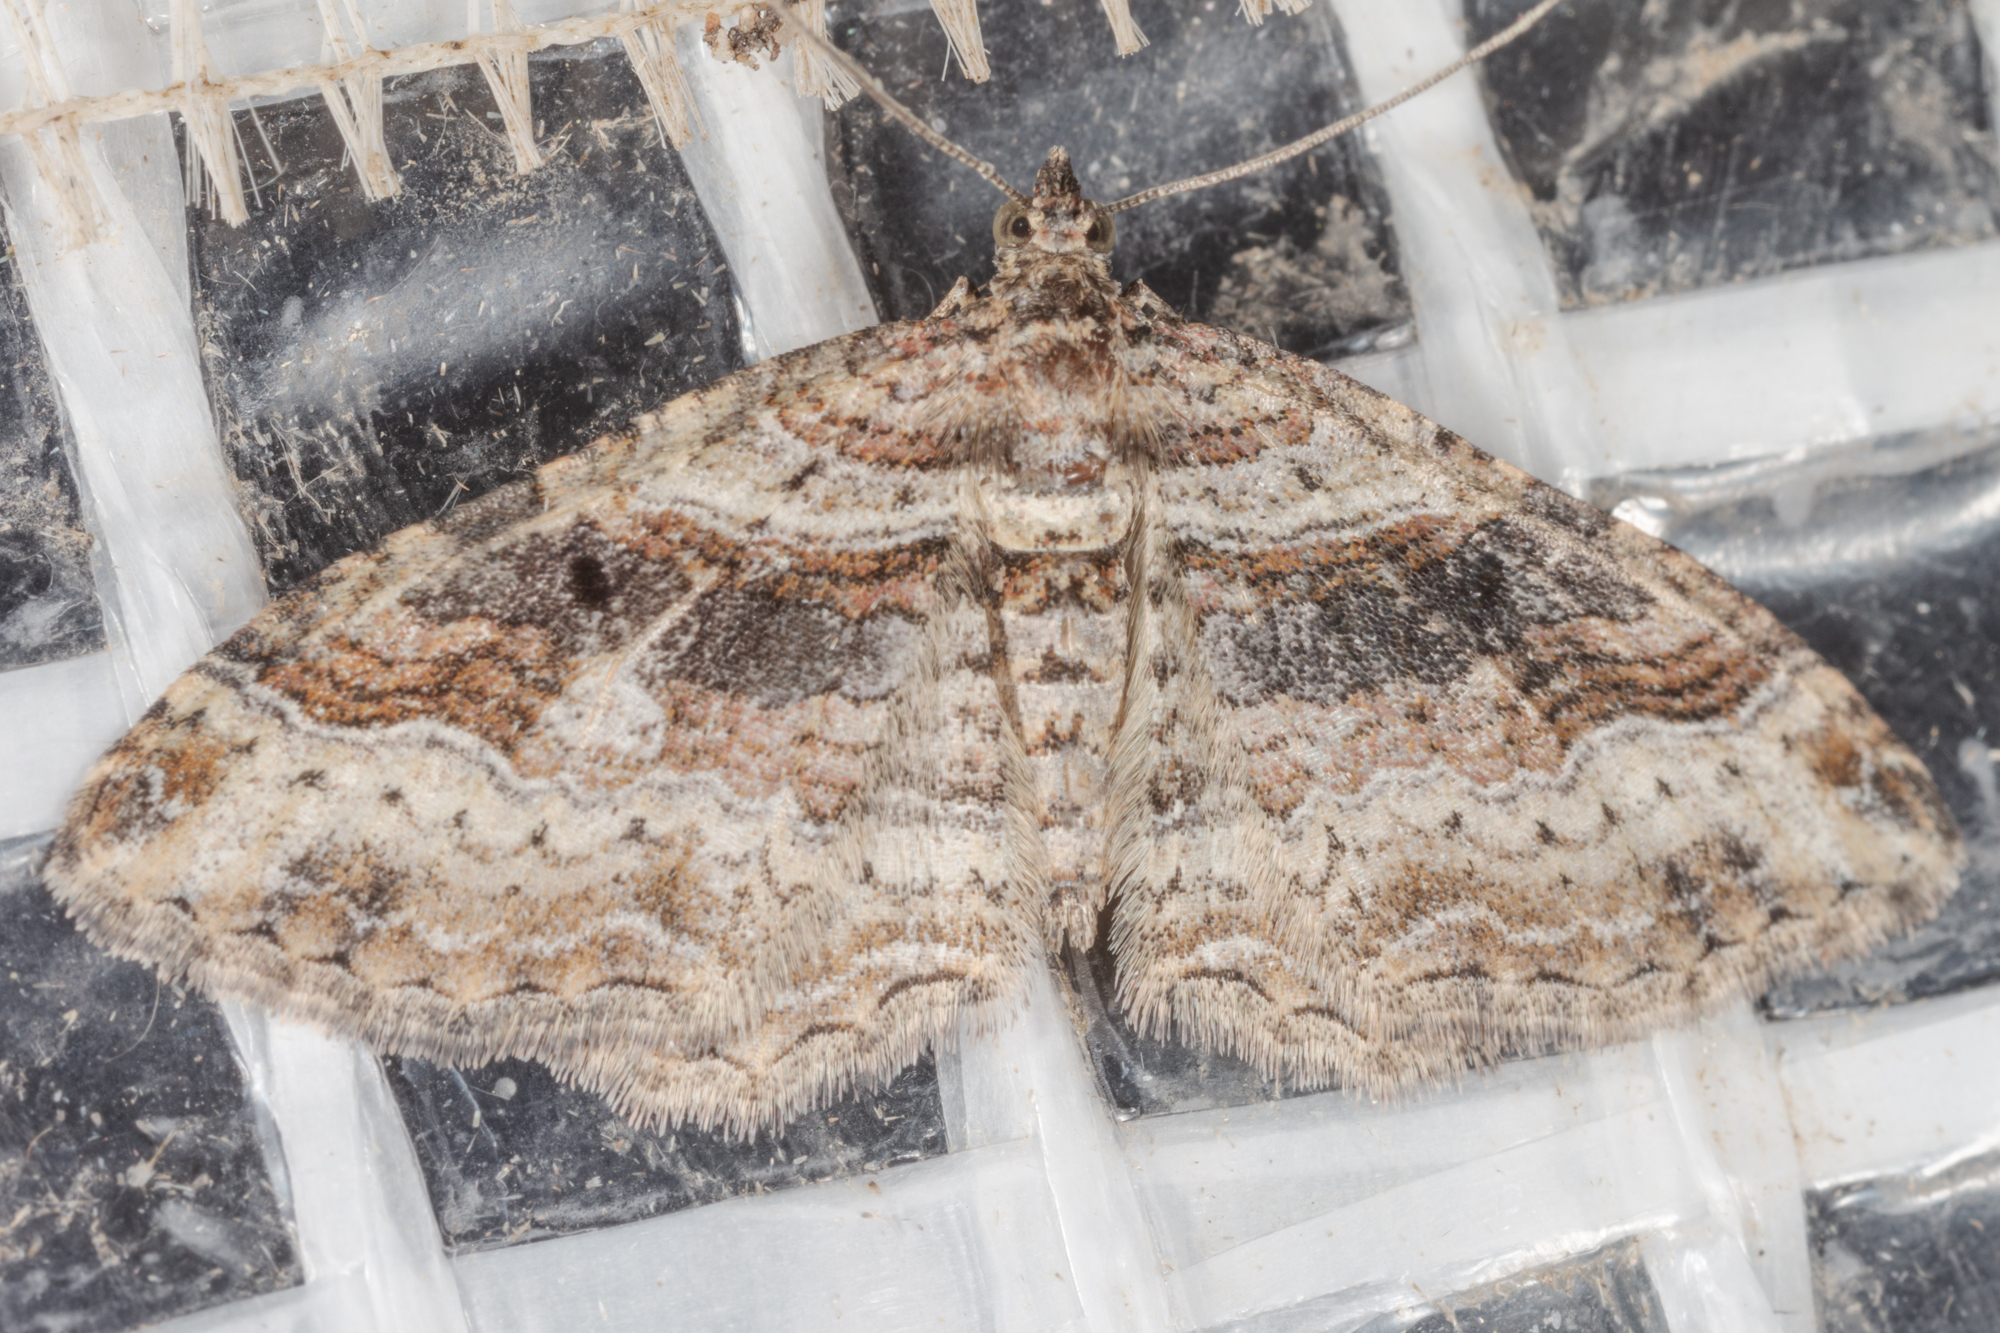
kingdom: Animalia
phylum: Arthropoda
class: Insecta
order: Lepidoptera
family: Geometridae
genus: Costaconvexa
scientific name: Costaconvexa centrostrigaria
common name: Bent-line carpet
